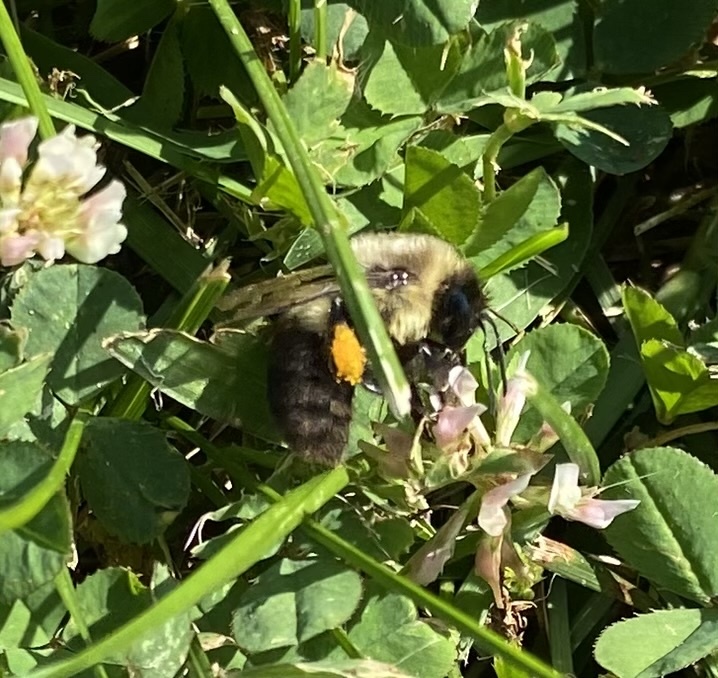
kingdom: Animalia
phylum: Arthropoda
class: Insecta
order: Hymenoptera
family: Apidae
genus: Bombus
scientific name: Bombus impatiens
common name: Common eastern bumble bee
